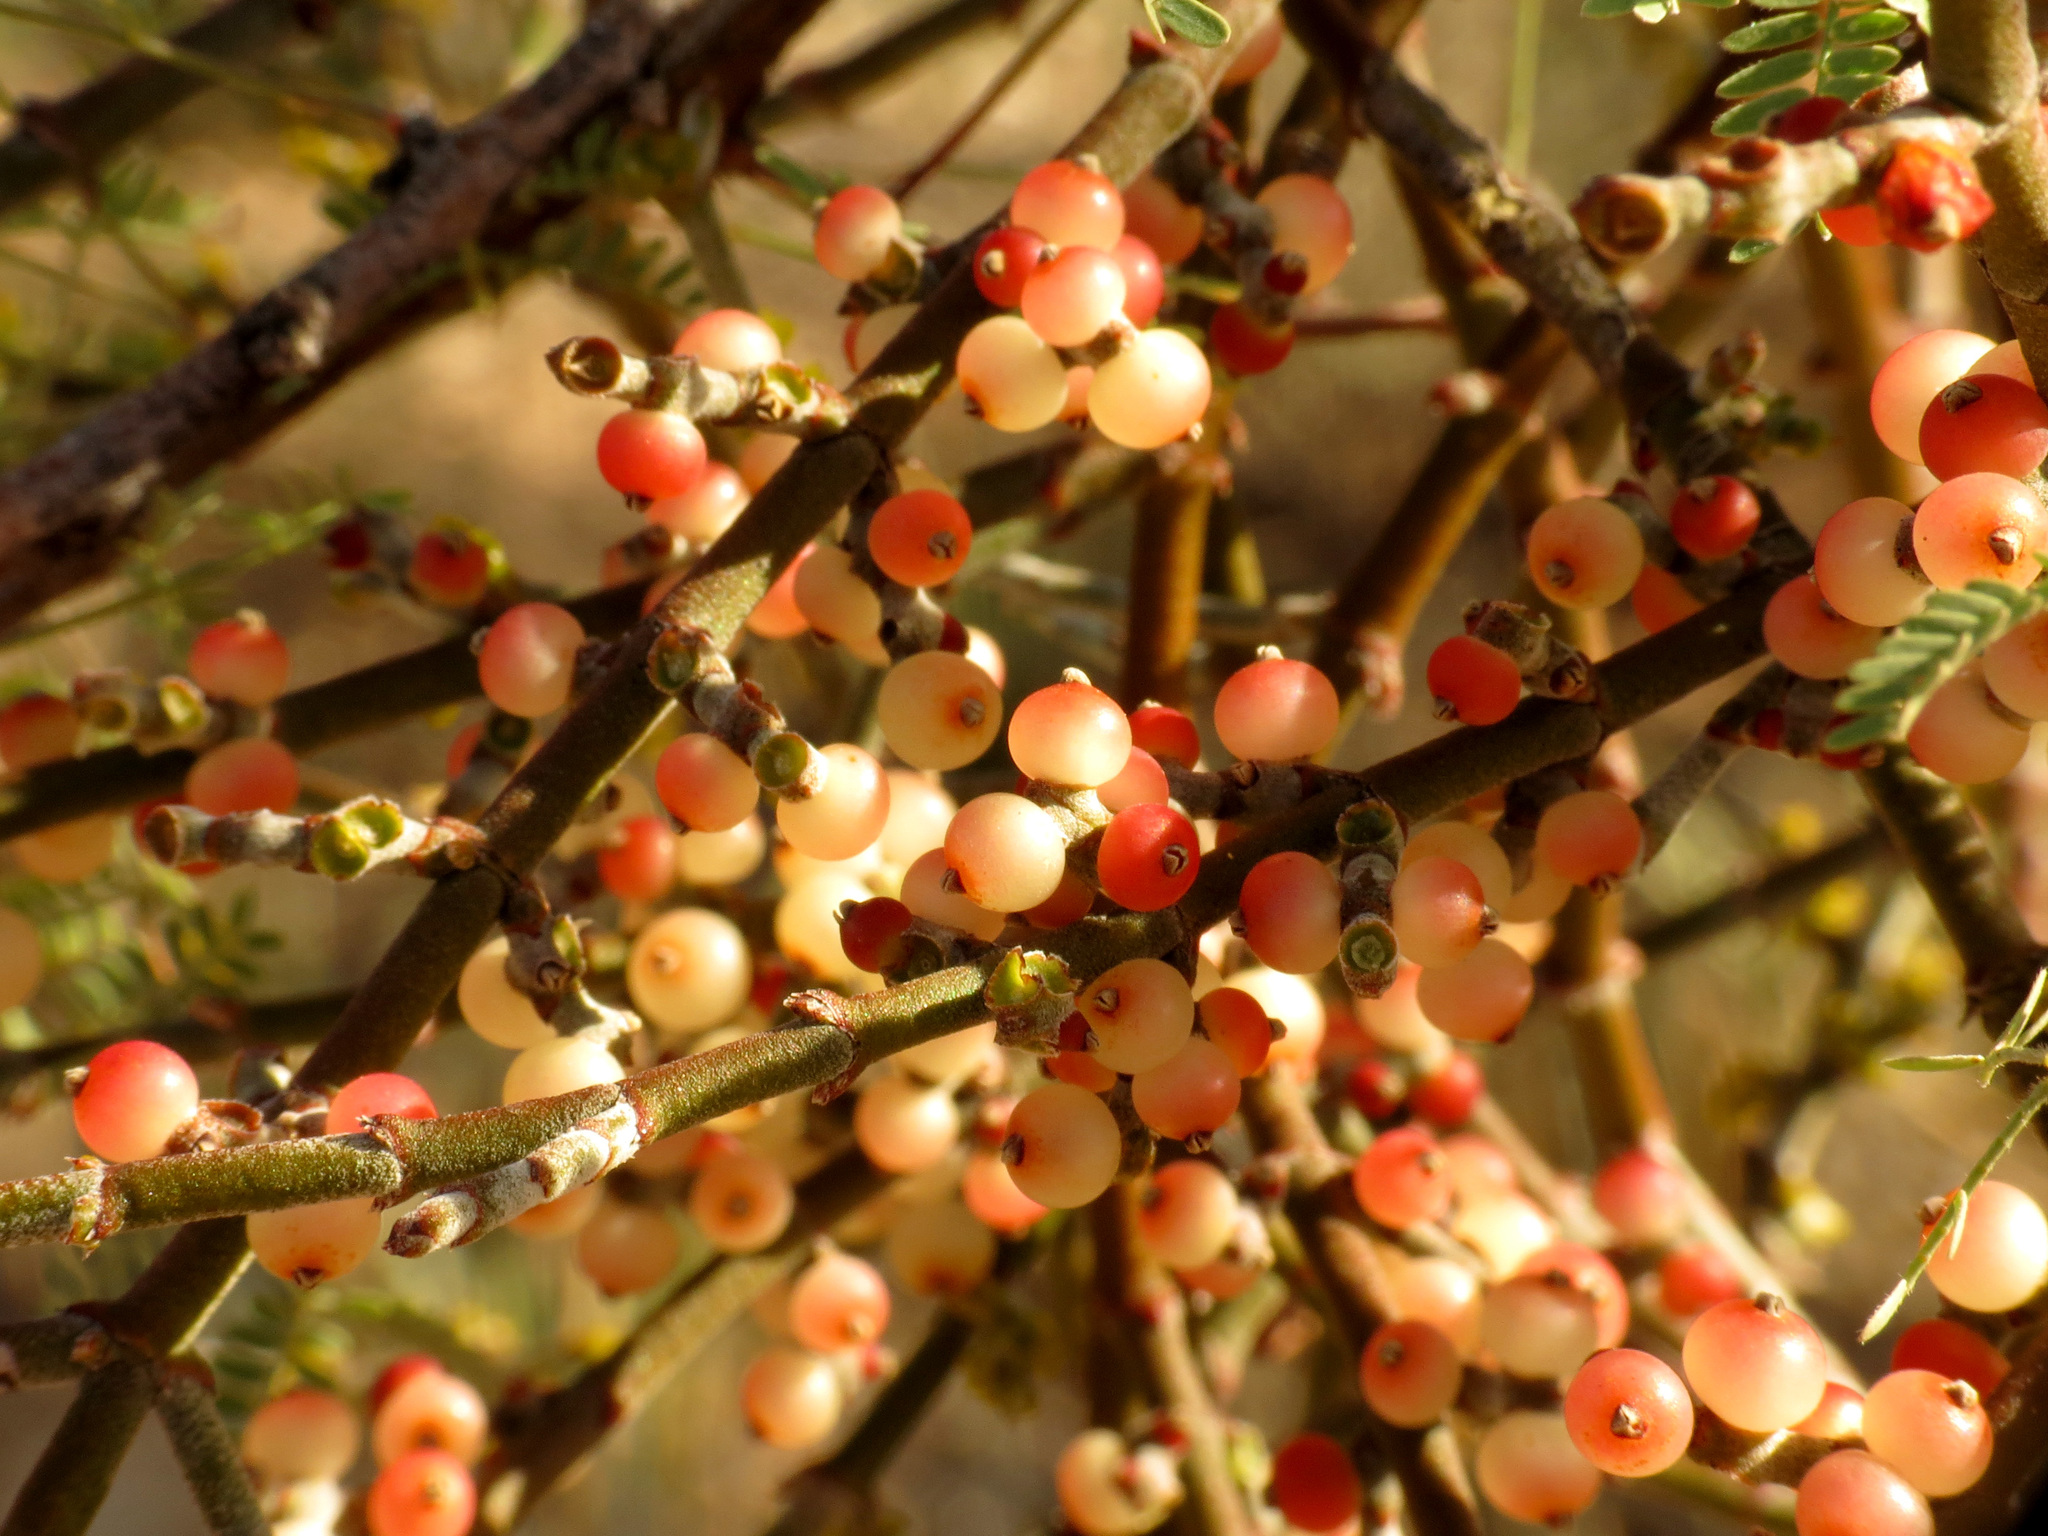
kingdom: Plantae
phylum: Tracheophyta
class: Magnoliopsida
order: Santalales
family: Viscaceae
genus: Phoradendron
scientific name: Phoradendron californicum
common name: Acacia mistletoe
